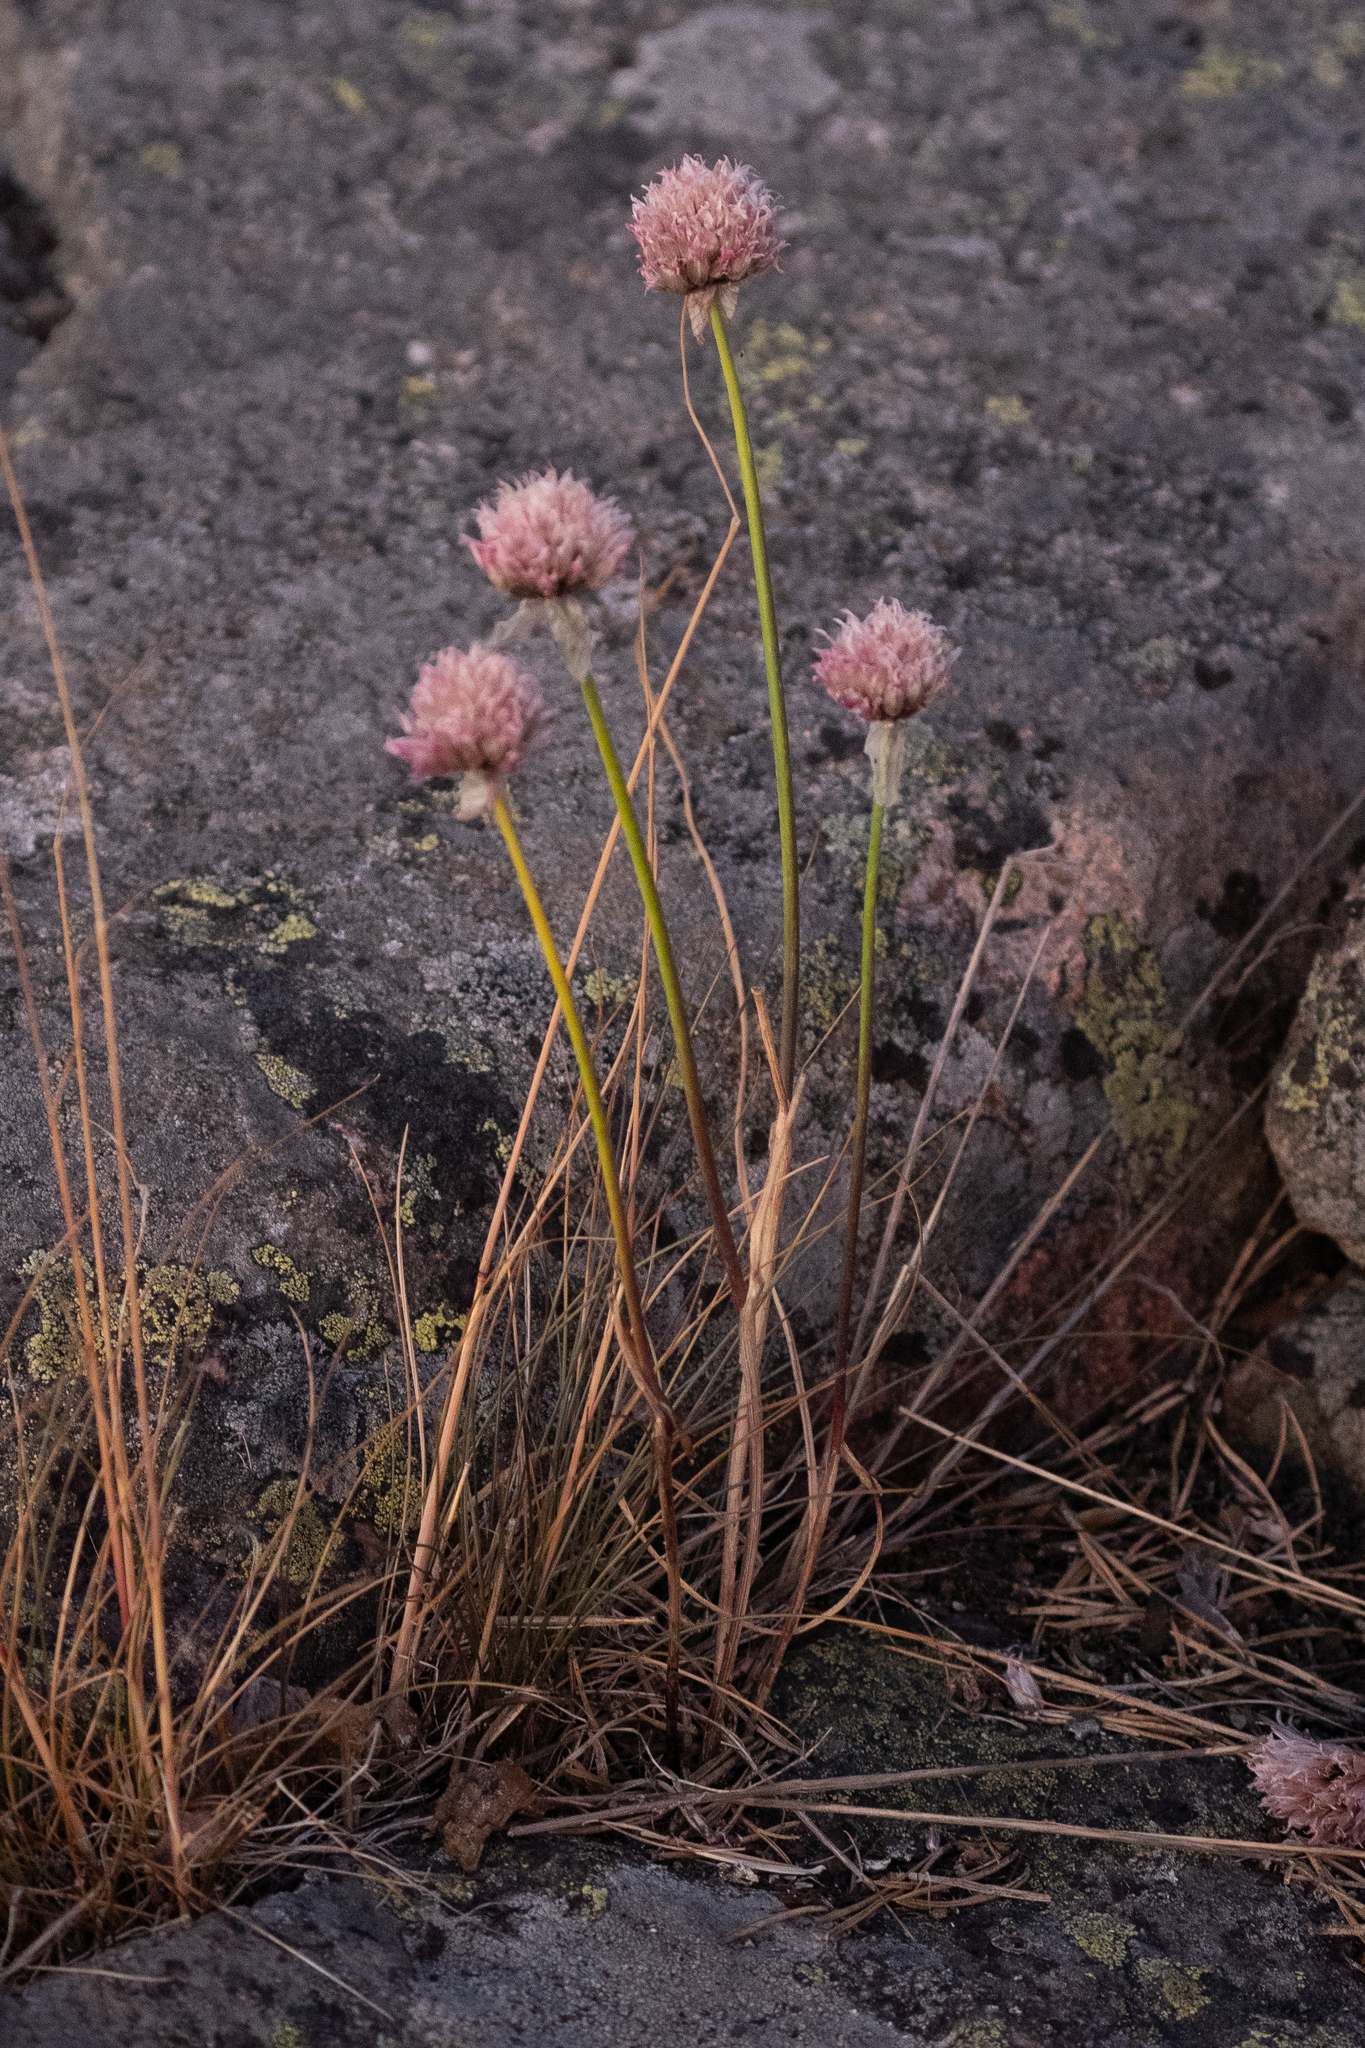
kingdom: Plantae
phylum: Tracheophyta
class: Liliopsida
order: Asparagales
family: Amaryllidaceae
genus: Allium
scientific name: Allium schoenoprasum
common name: Chives
